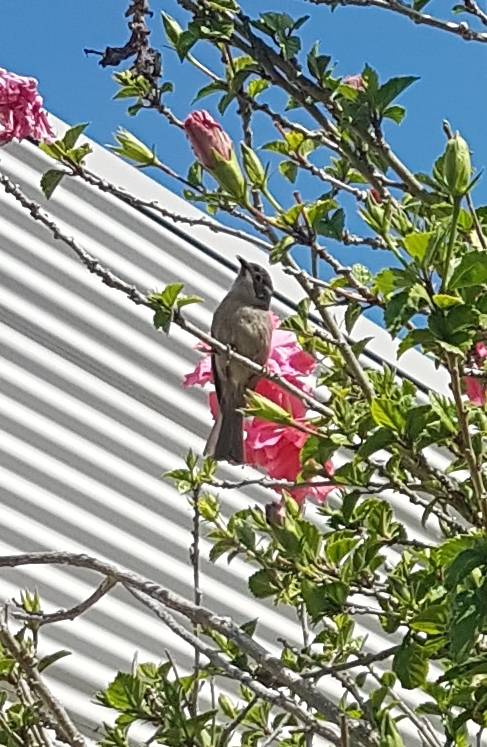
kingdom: Animalia
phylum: Chordata
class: Aves
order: Passeriformes
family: Meliphagidae
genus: Melithreptus
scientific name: Melithreptus brevirostris
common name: Brown-headed honeyeater
